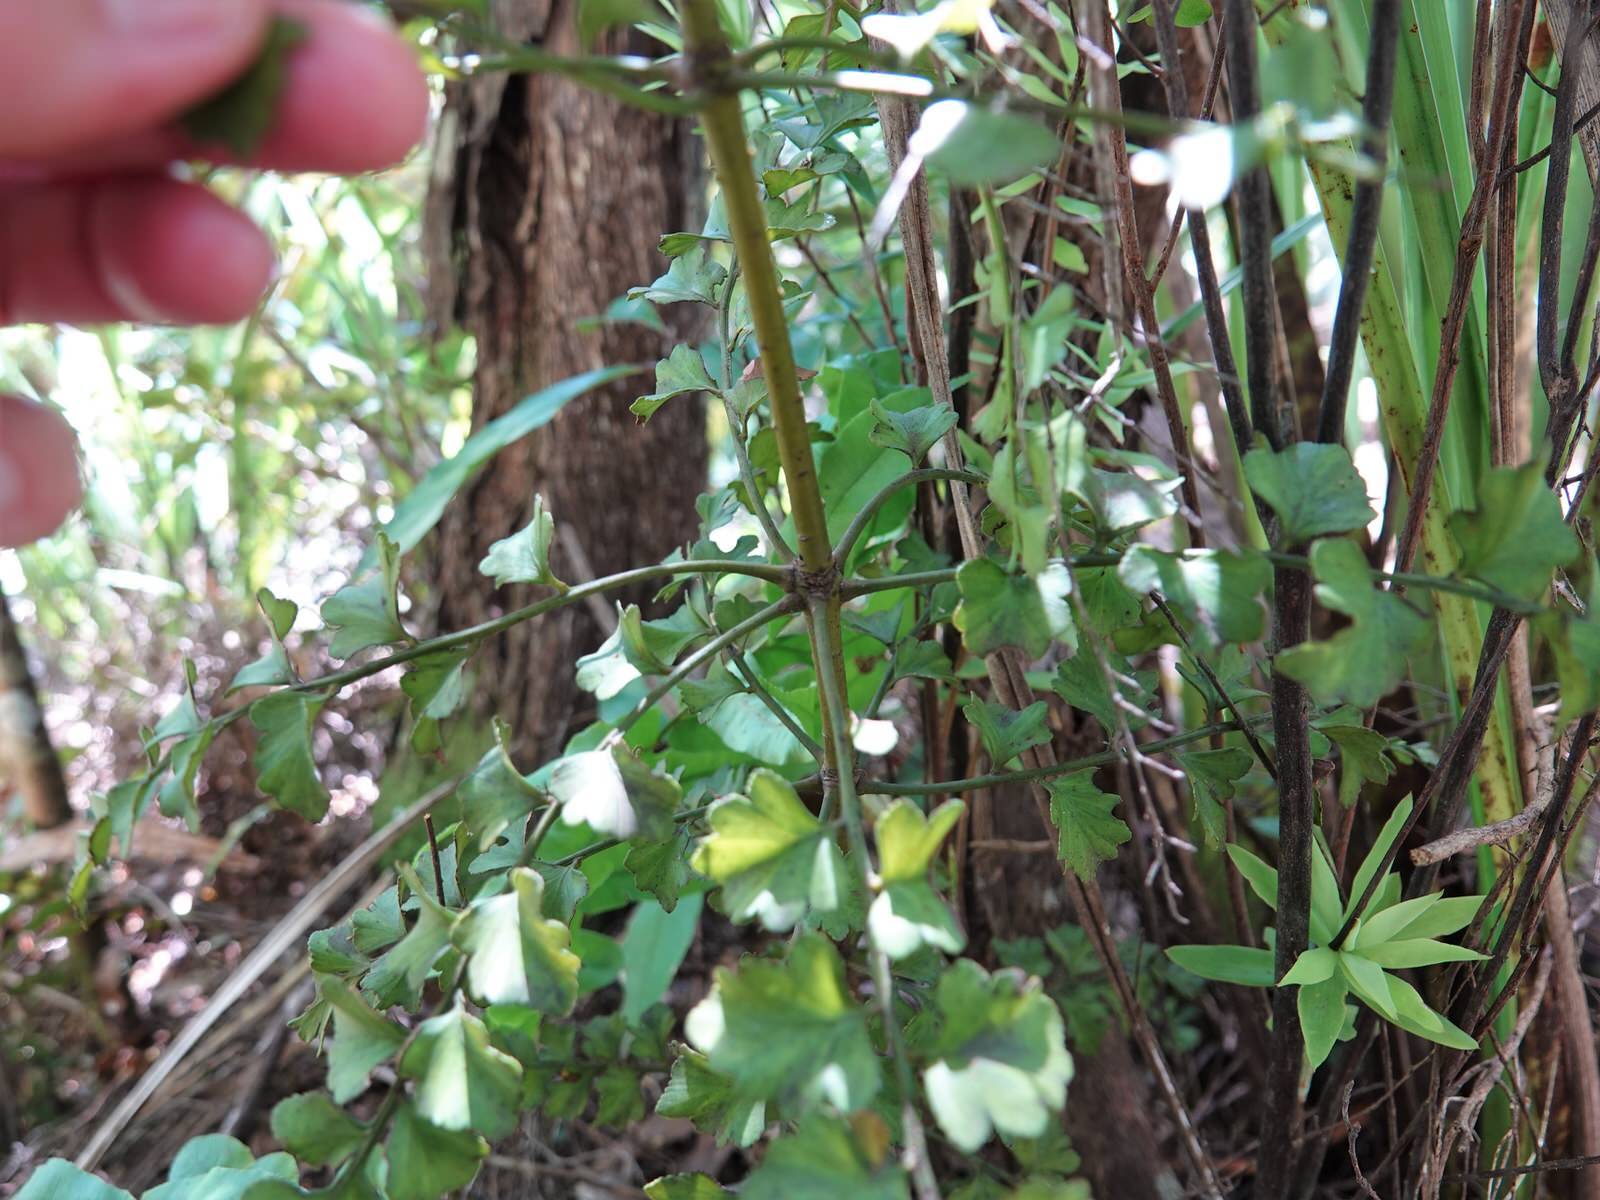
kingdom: Plantae
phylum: Tracheophyta
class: Pinopsida
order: Pinales
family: Phyllocladaceae
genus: Phyllocladus
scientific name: Phyllocladus toatoa
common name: Celery-top pine
